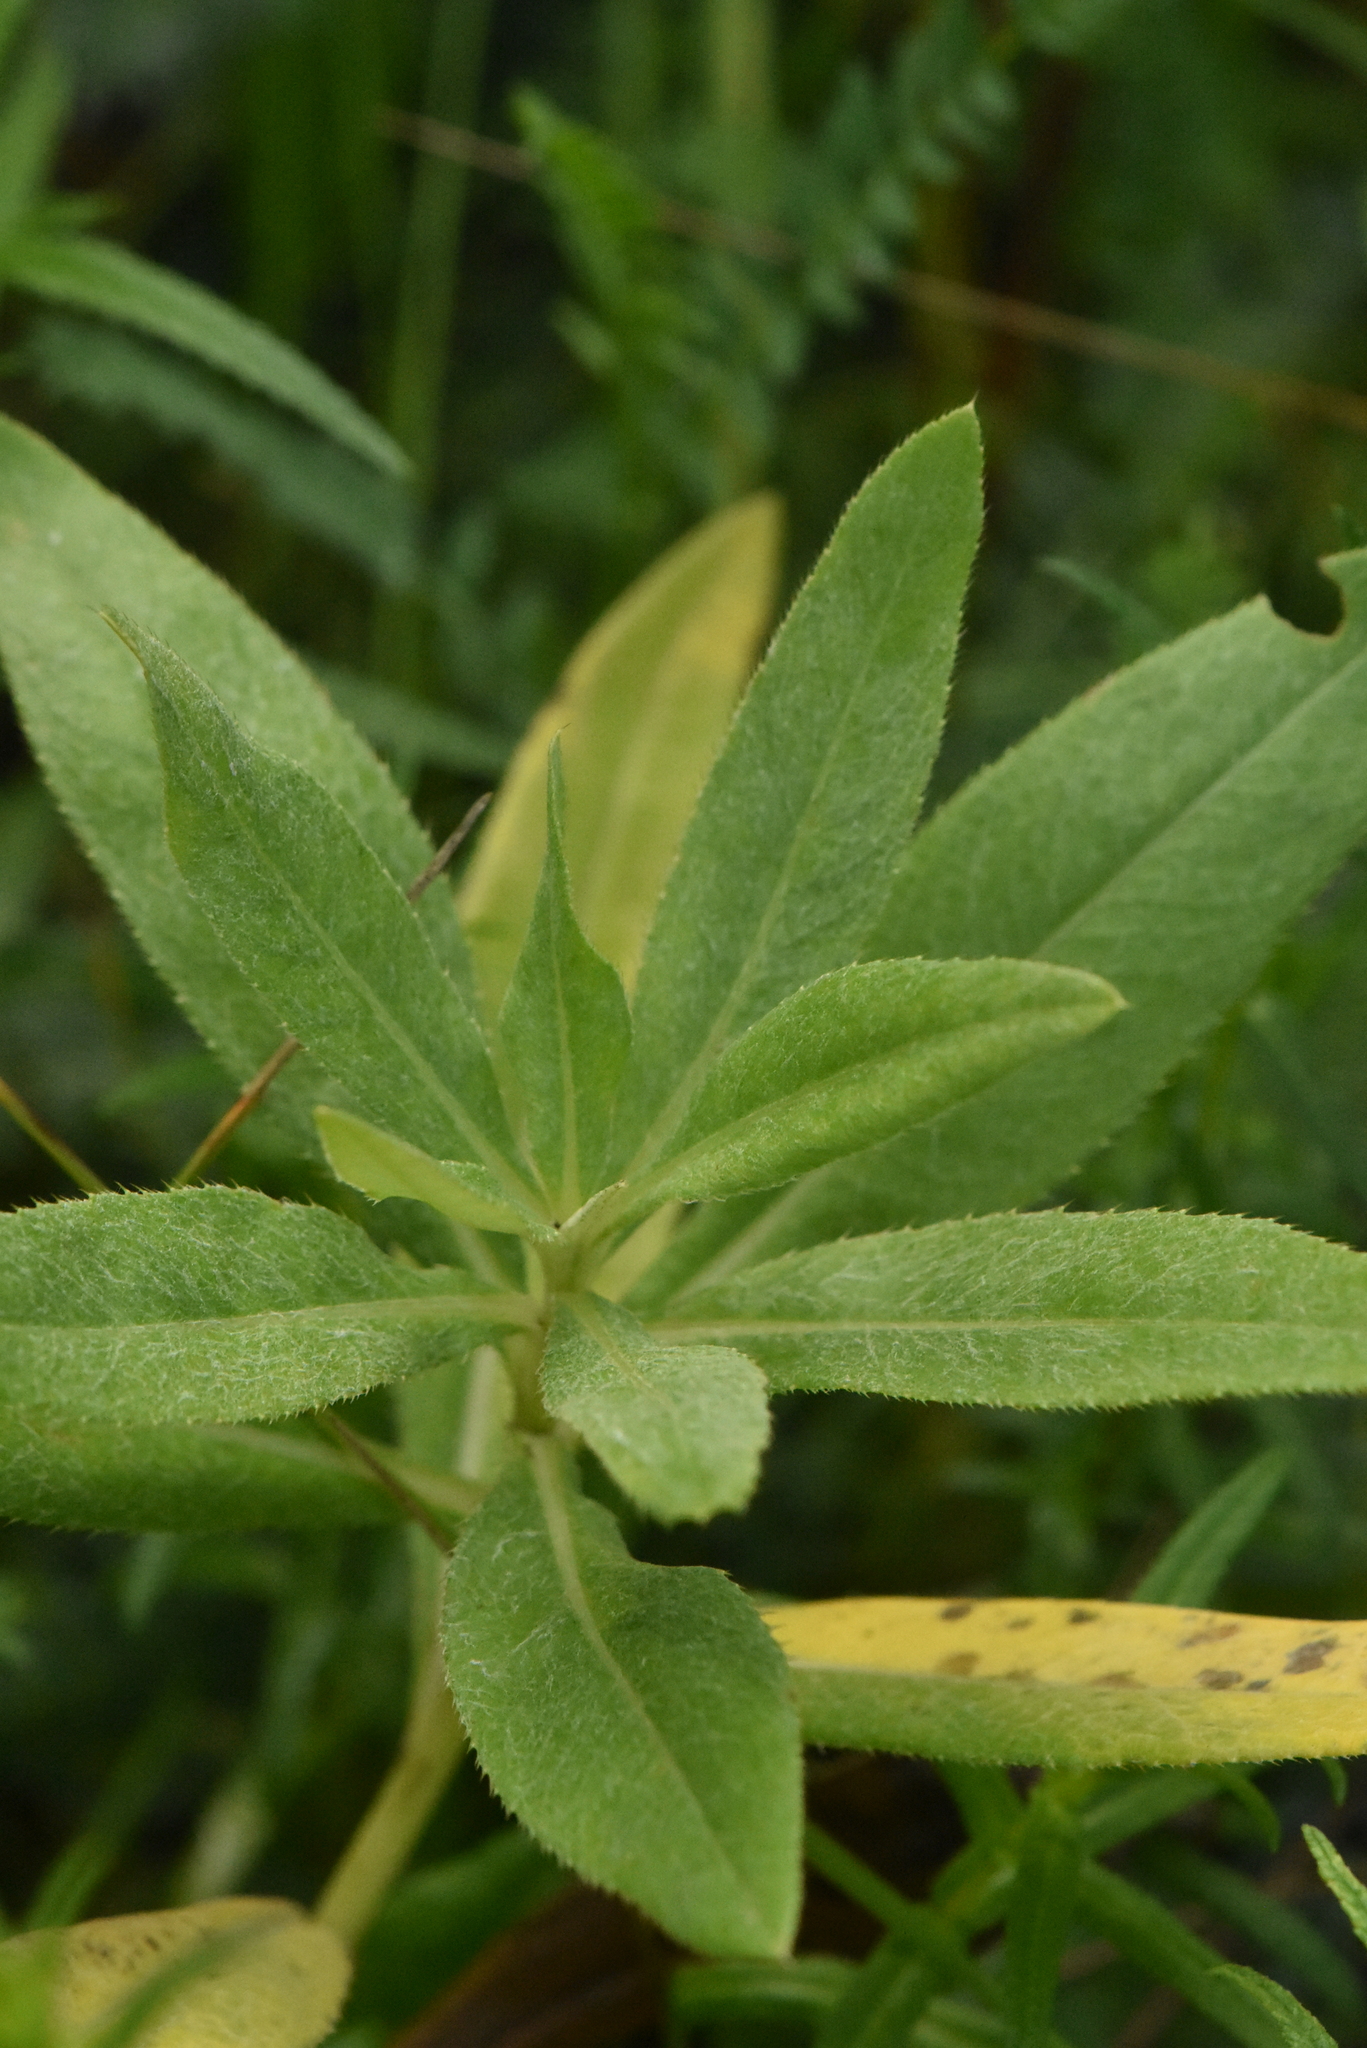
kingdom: Plantae
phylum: Tracheophyta
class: Magnoliopsida
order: Asterales
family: Asteraceae
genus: Cirsium
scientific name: Cirsium arvense
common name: Creeping thistle
